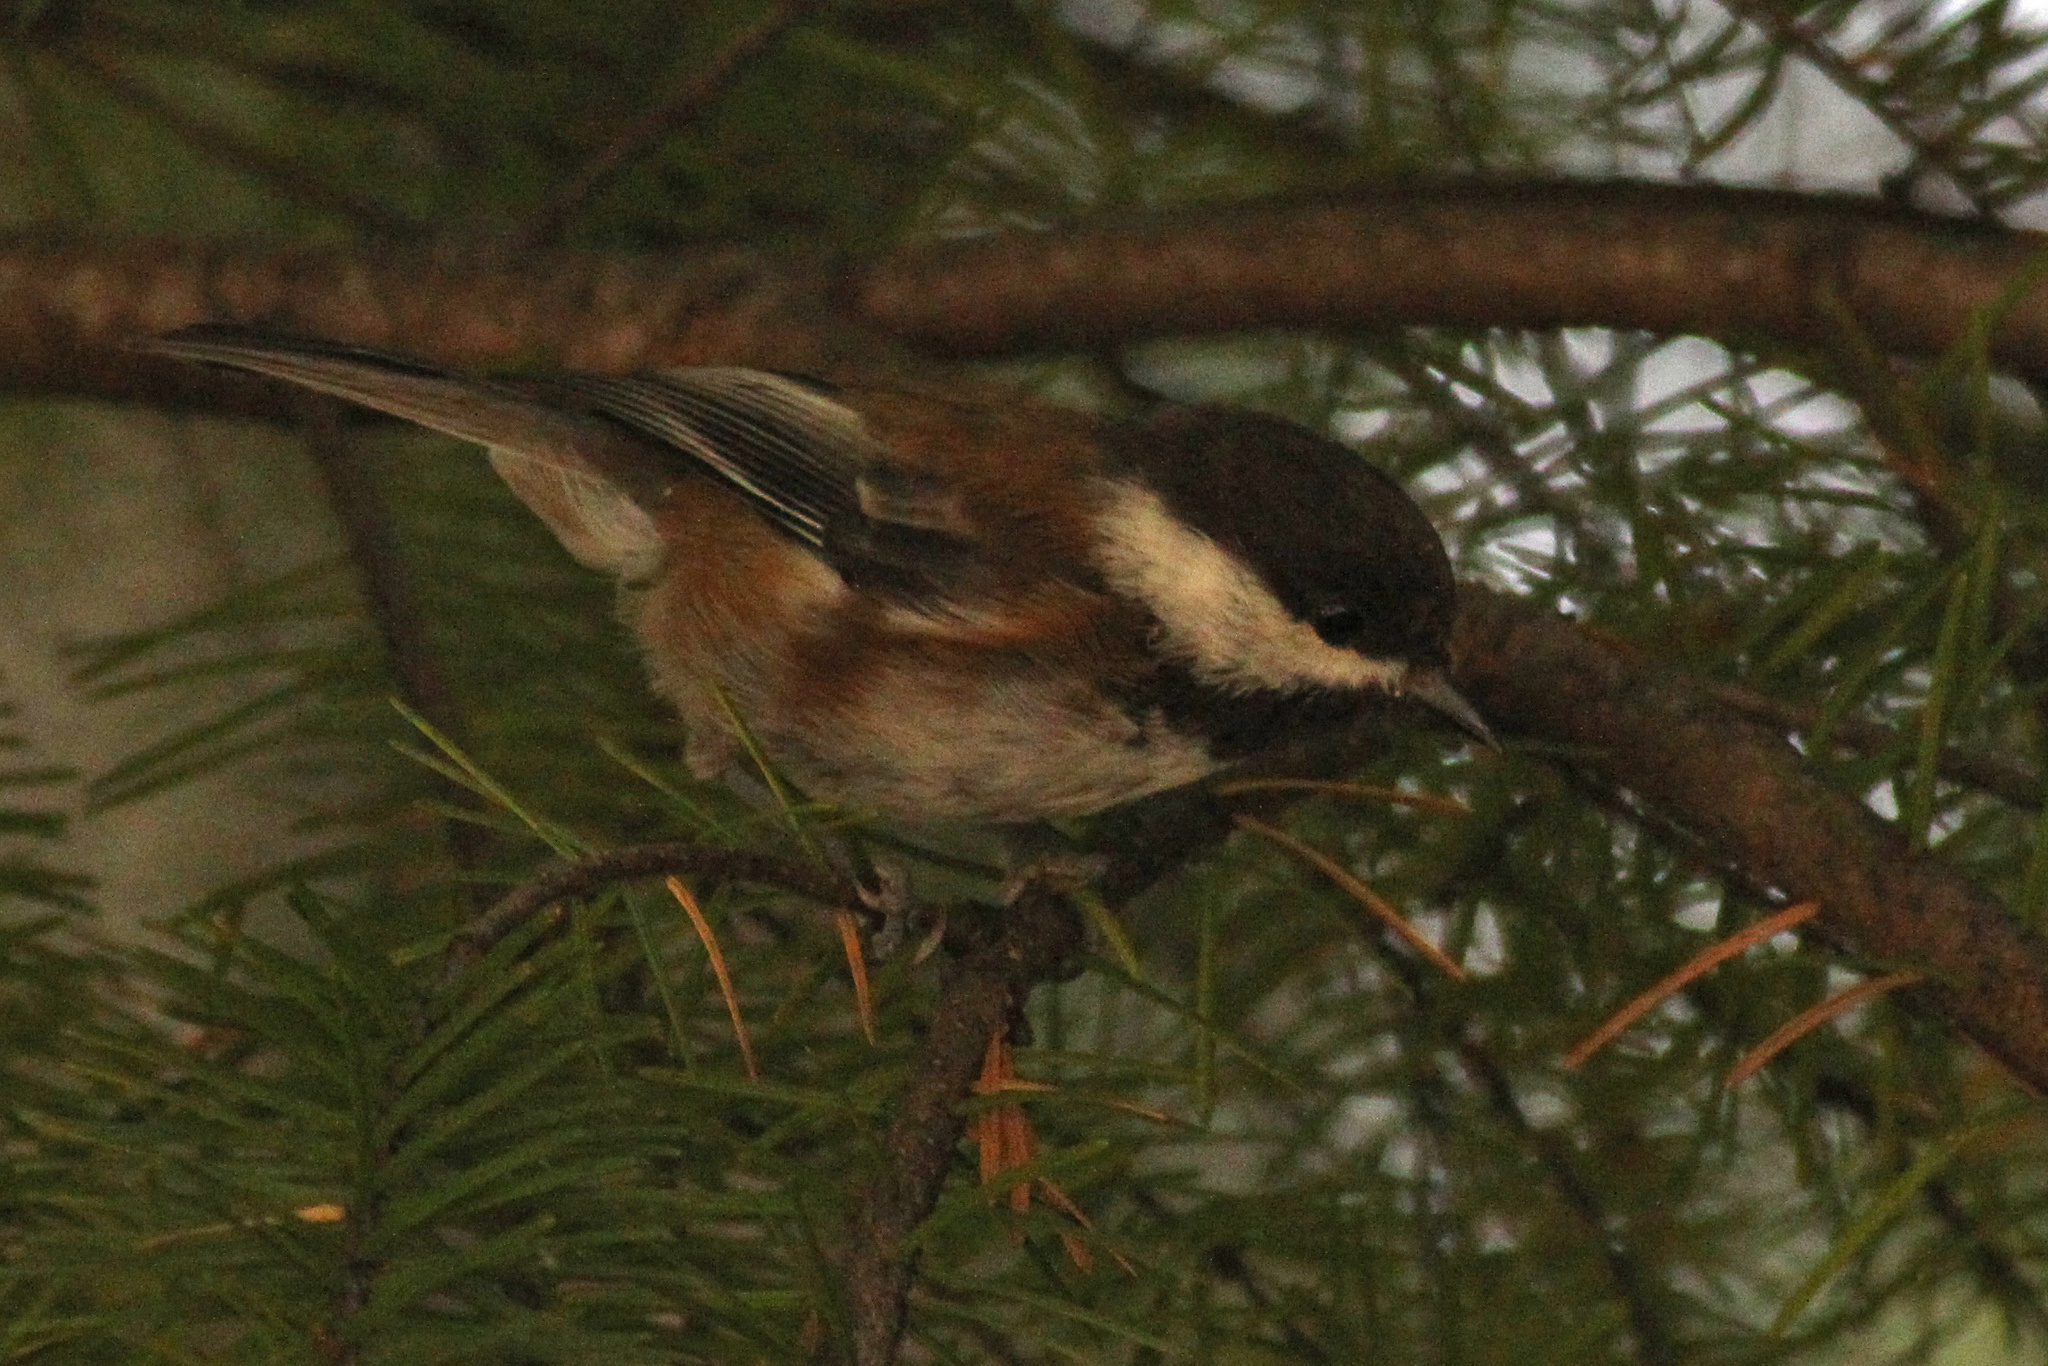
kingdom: Animalia
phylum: Chordata
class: Aves
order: Passeriformes
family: Paridae
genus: Poecile
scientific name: Poecile rufescens
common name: Chestnut-backed chickadee
